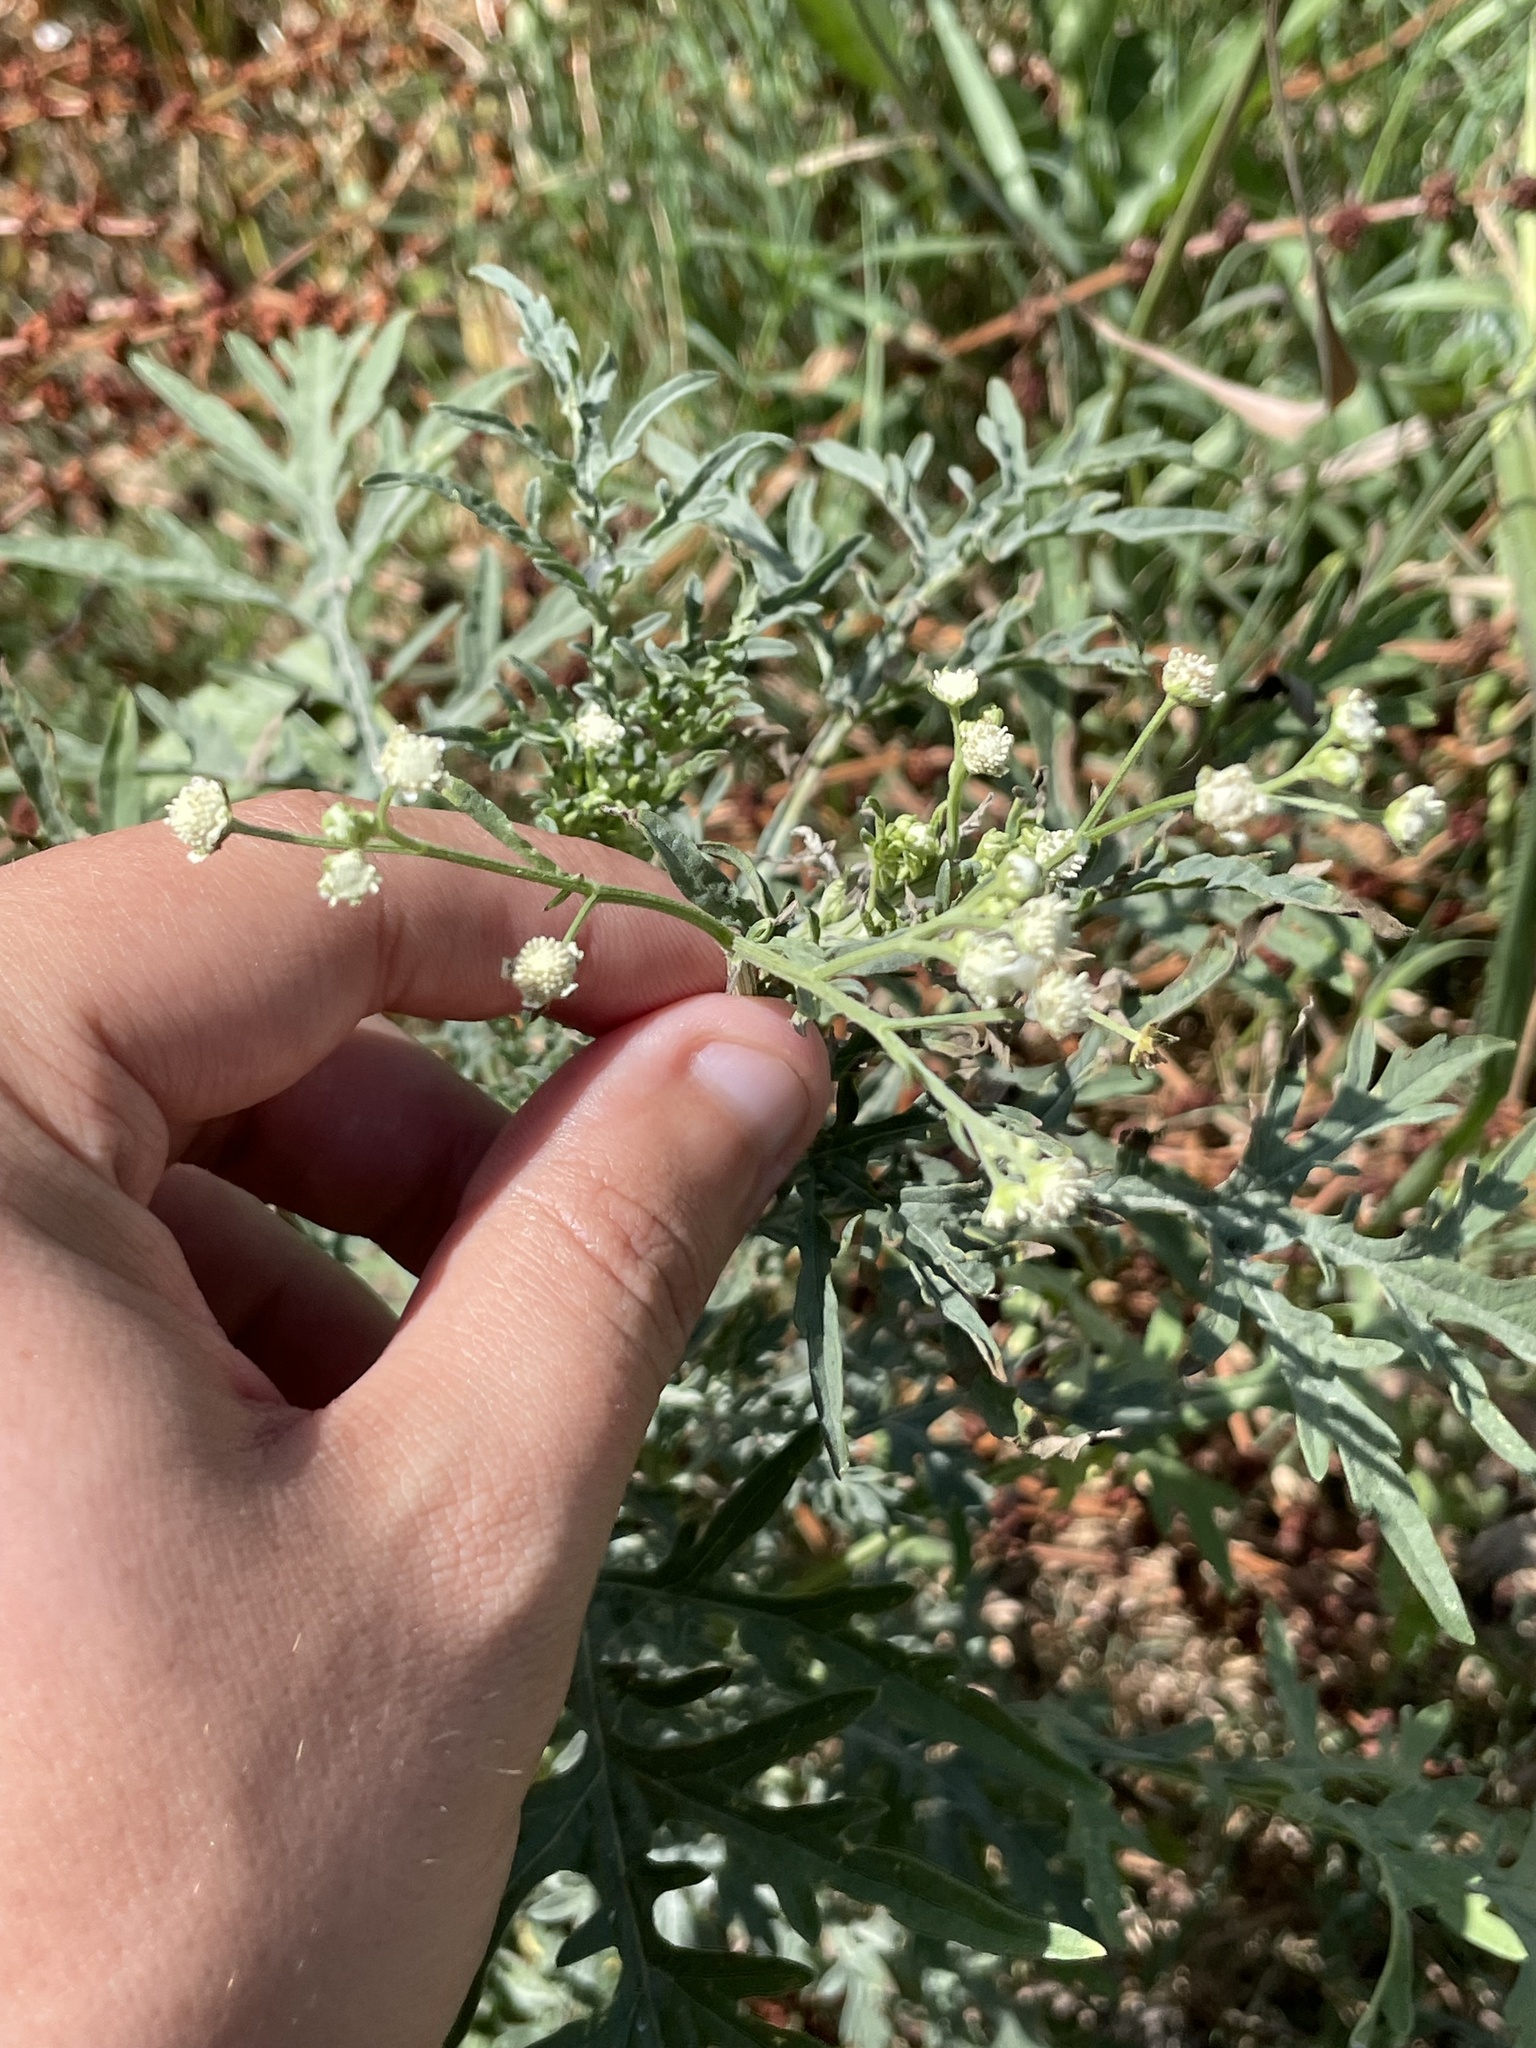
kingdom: Plantae
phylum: Tracheophyta
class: Magnoliopsida
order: Asterales
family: Asteraceae
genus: Parthenium
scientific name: Parthenium hysterophorus
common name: Santa maria feverfew
